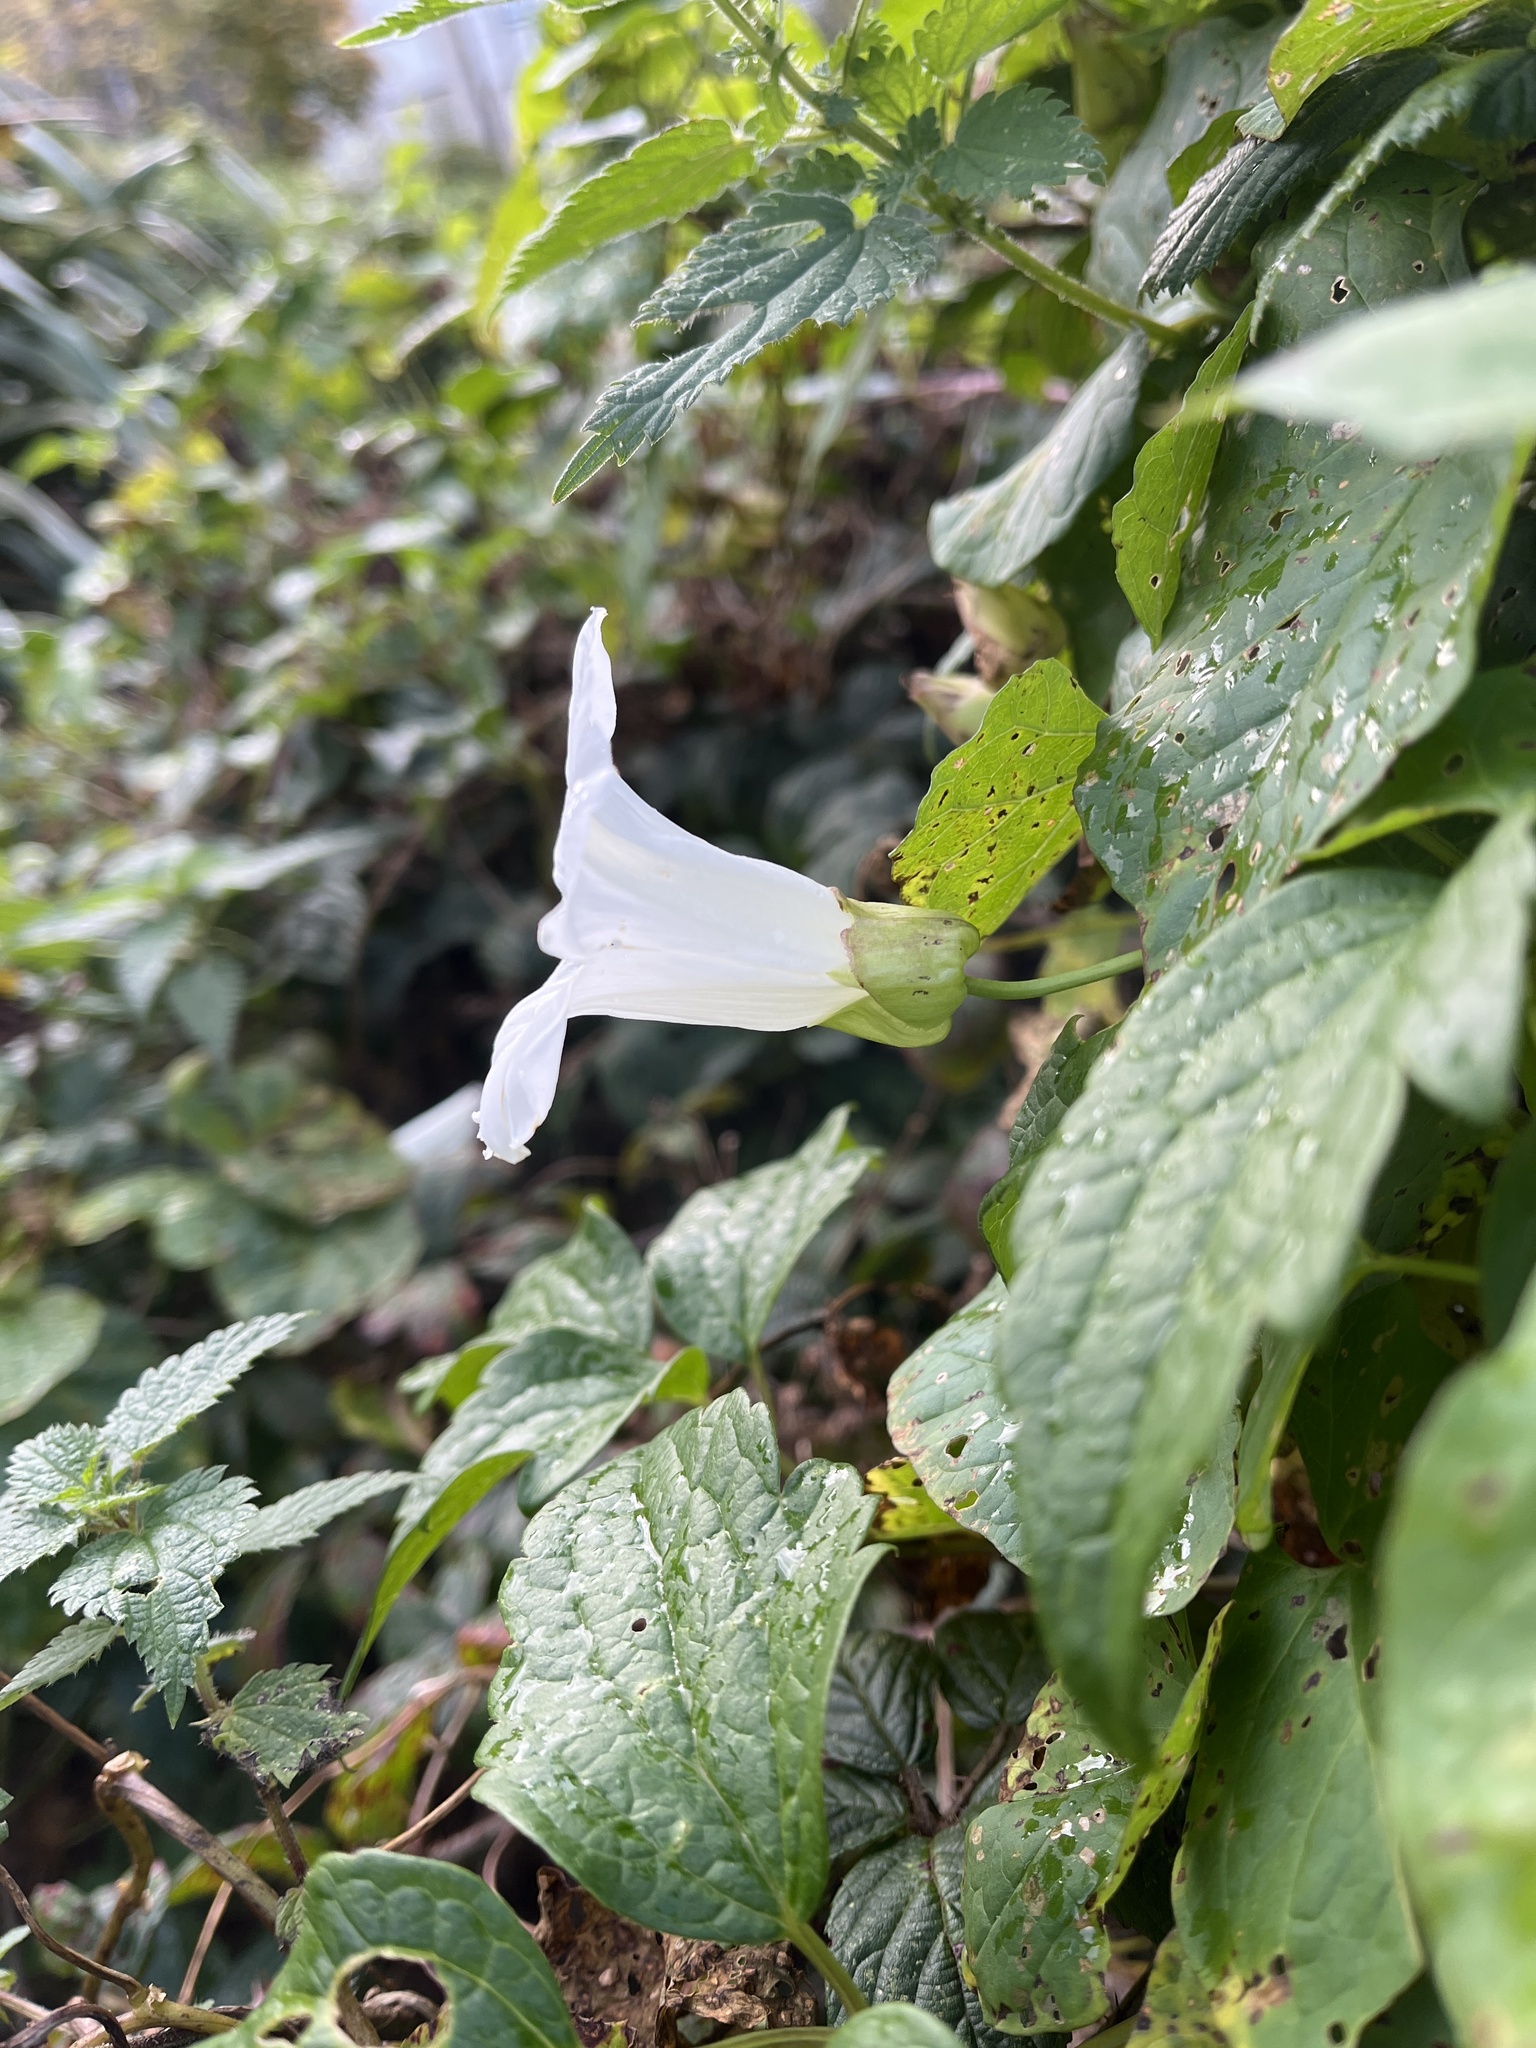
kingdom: Plantae
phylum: Tracheophyta
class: Magnoliopsida
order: Solanales
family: Convolvulaceae
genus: Calystegia
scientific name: Calystegia silvatica
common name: Large bindweed
